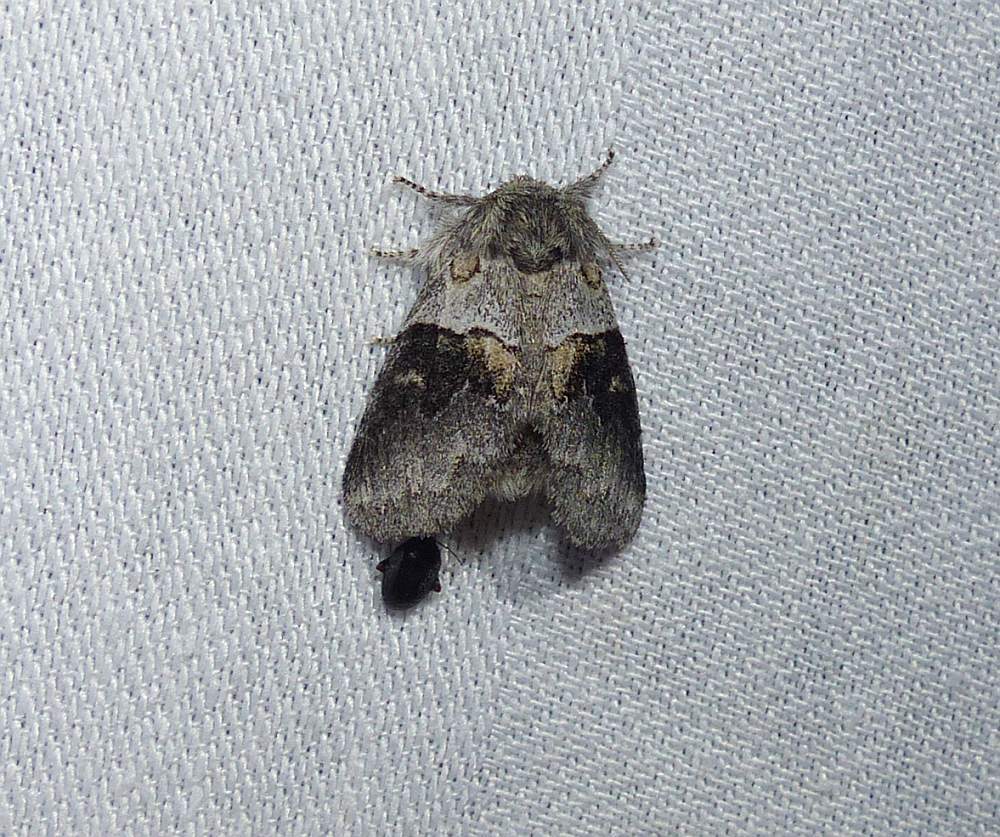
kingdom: Animalia
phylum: Arthropoda
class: Insecta
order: Lepidoptera
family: Notodontidae
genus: Gluphisia
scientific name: Gluphisia septentrionis
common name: Common gluphisia
